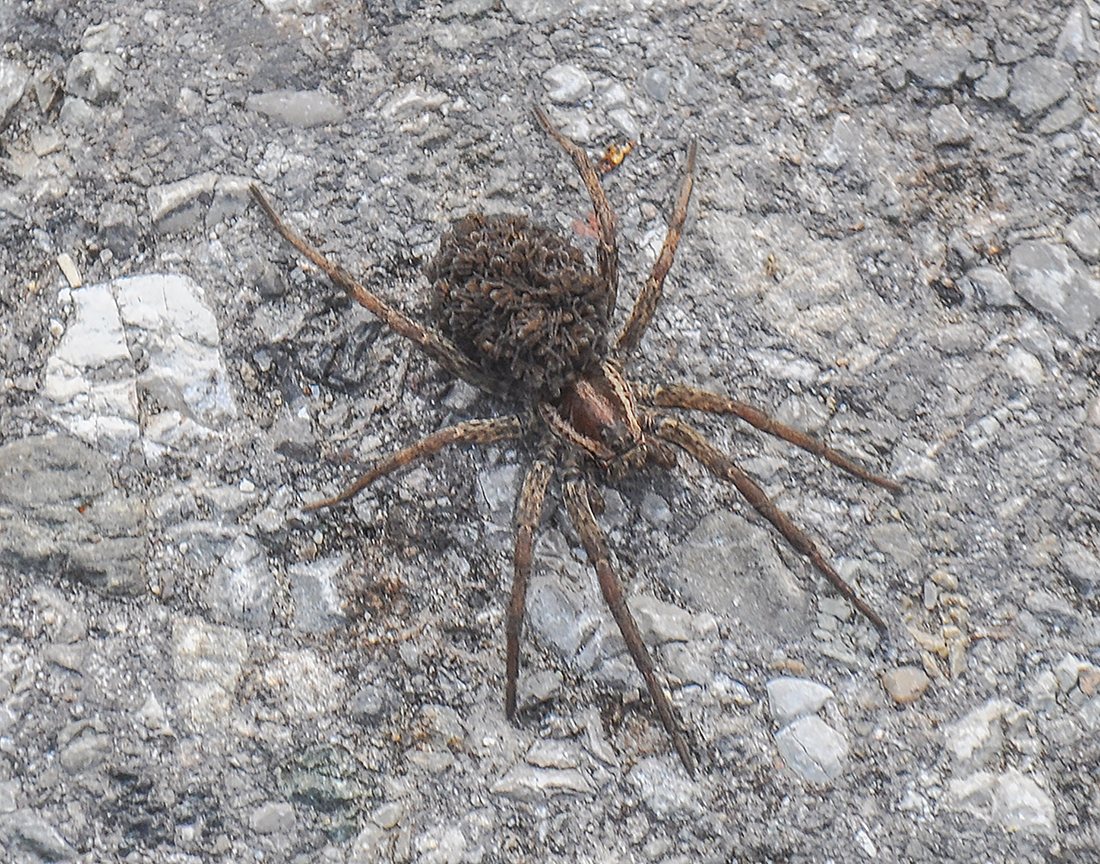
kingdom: Animalia
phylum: Arthropoda
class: Arachnida
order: Araneae
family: Lycosidae
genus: Hogna
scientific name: Hogna radiata
